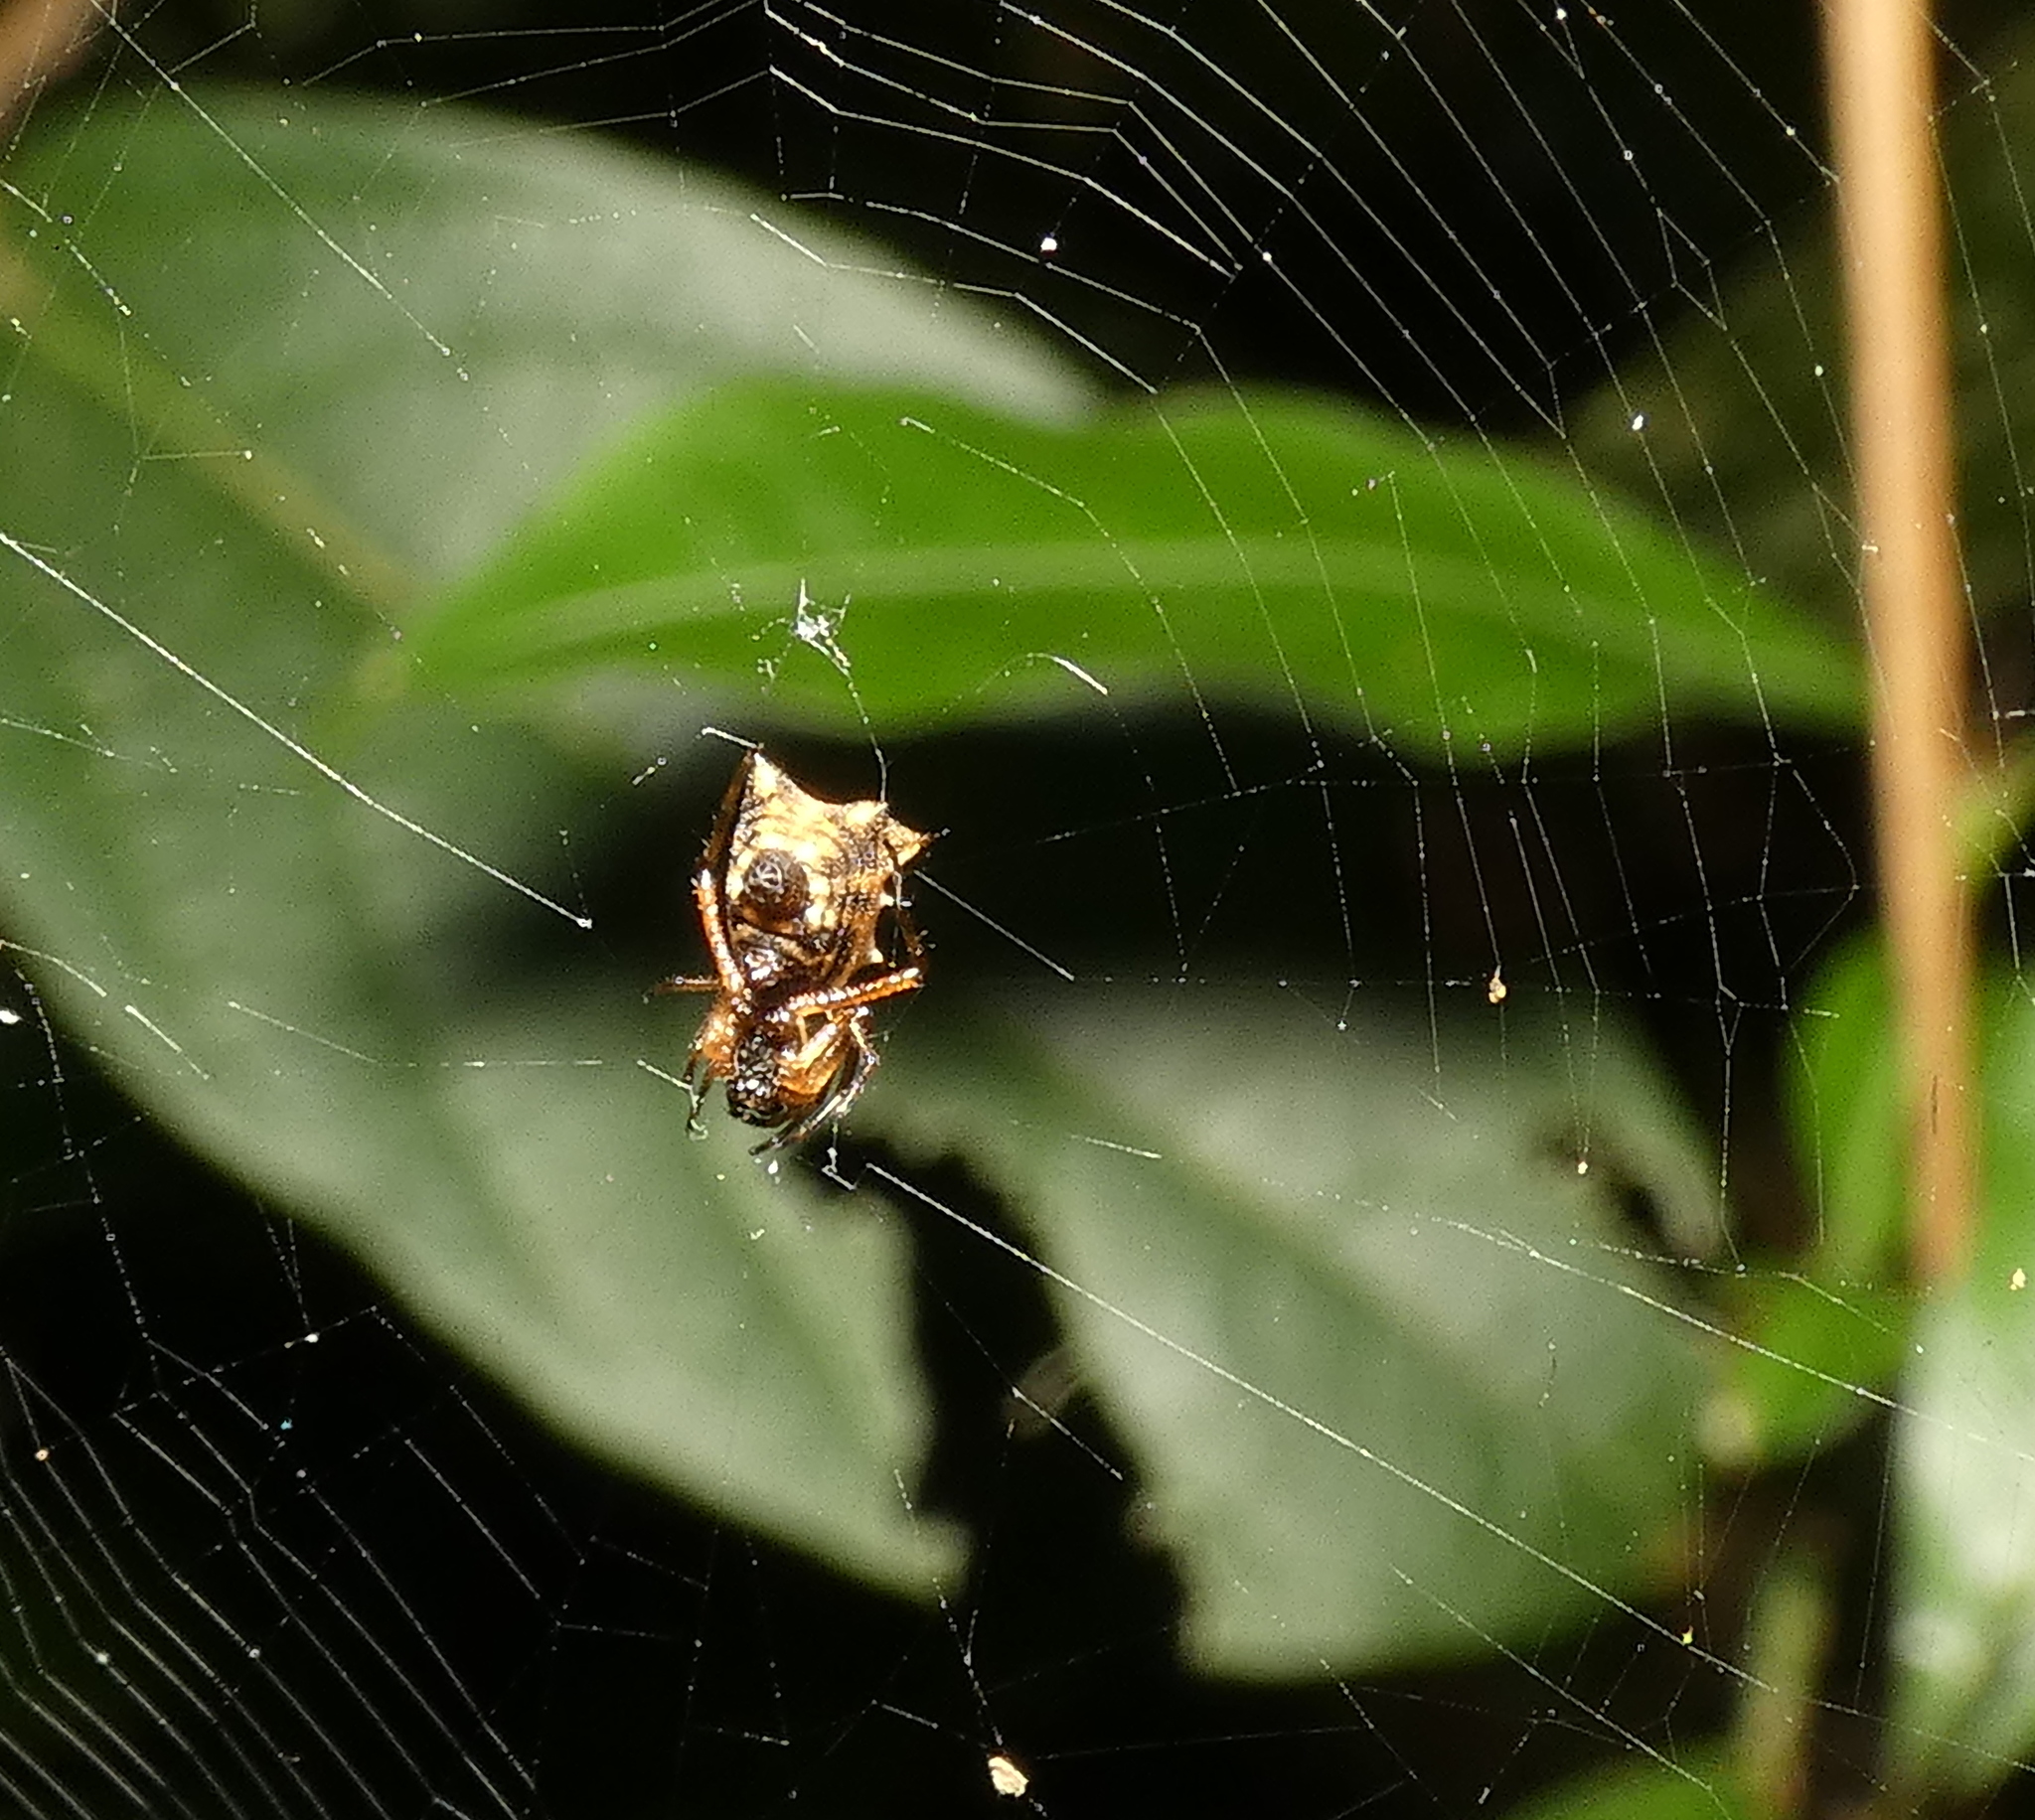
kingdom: Animalia
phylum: Arthropoda
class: Arachnida
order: Araneae
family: Araneidae
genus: Micrathena
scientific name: Micrathena picta
